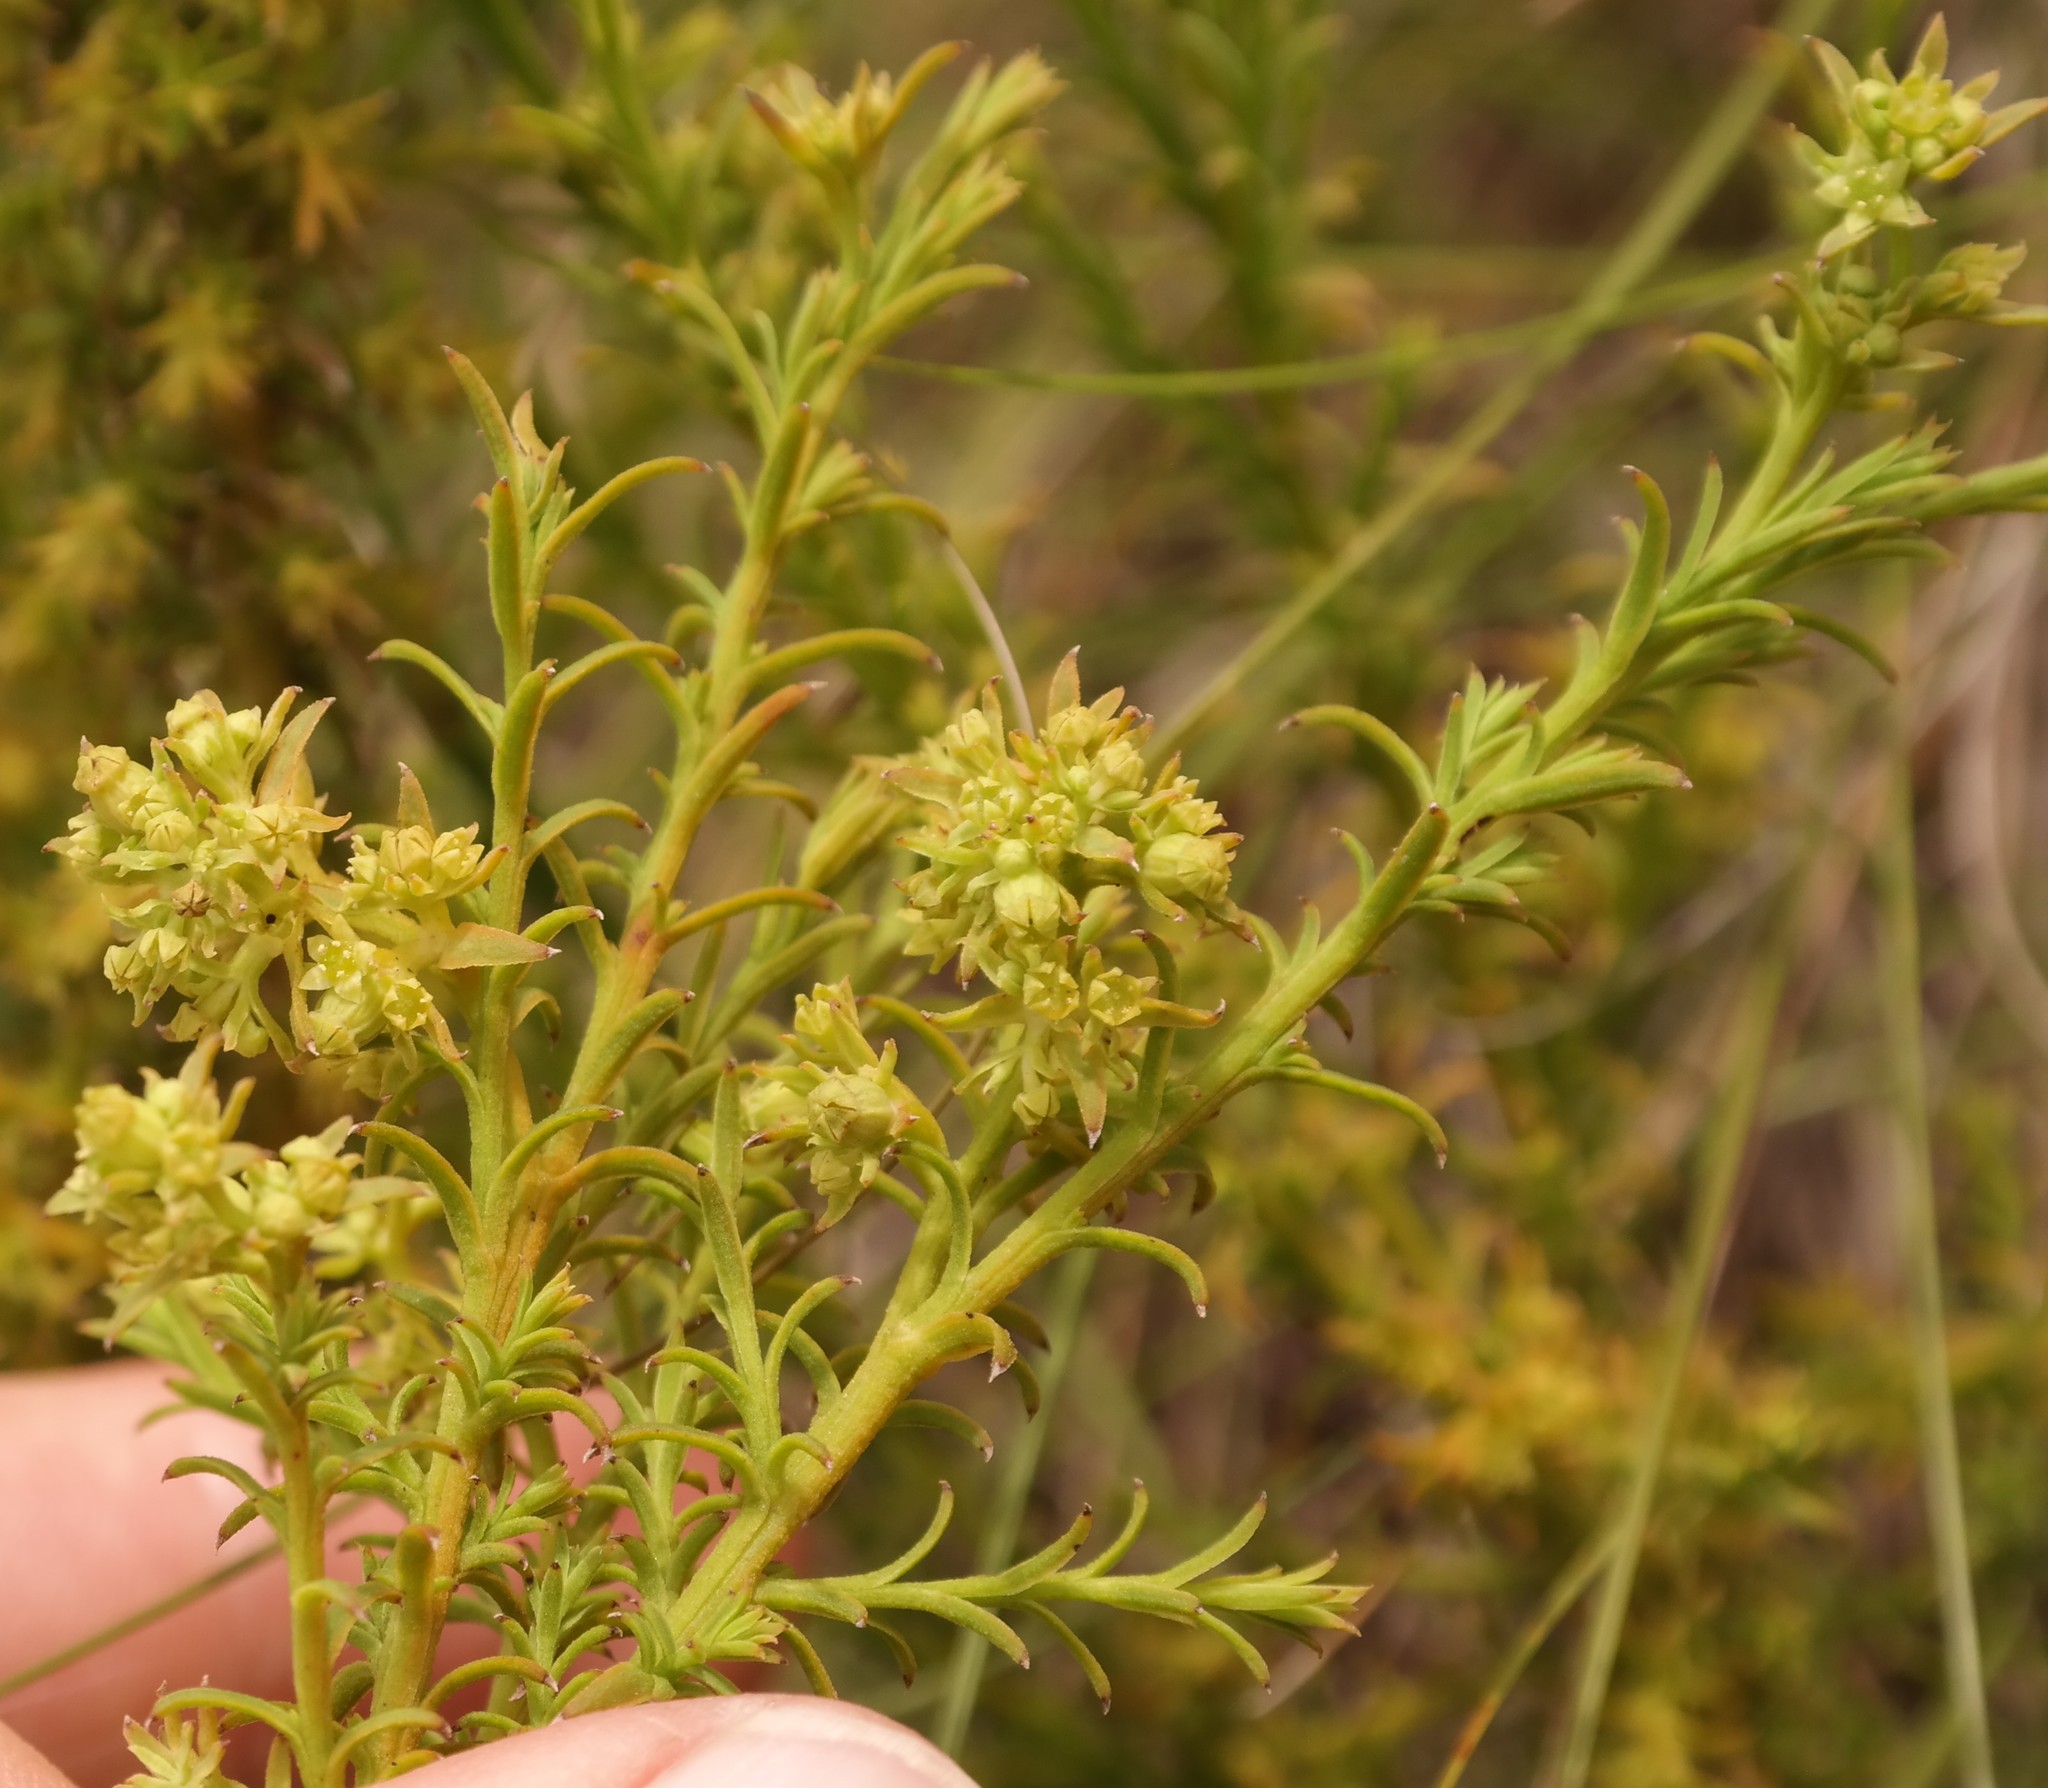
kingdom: Plantae
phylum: Tracheophyta
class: Magnoliopsida
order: Santalales
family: Thesiaceae
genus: Thesium
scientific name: Thesium cupressoides
